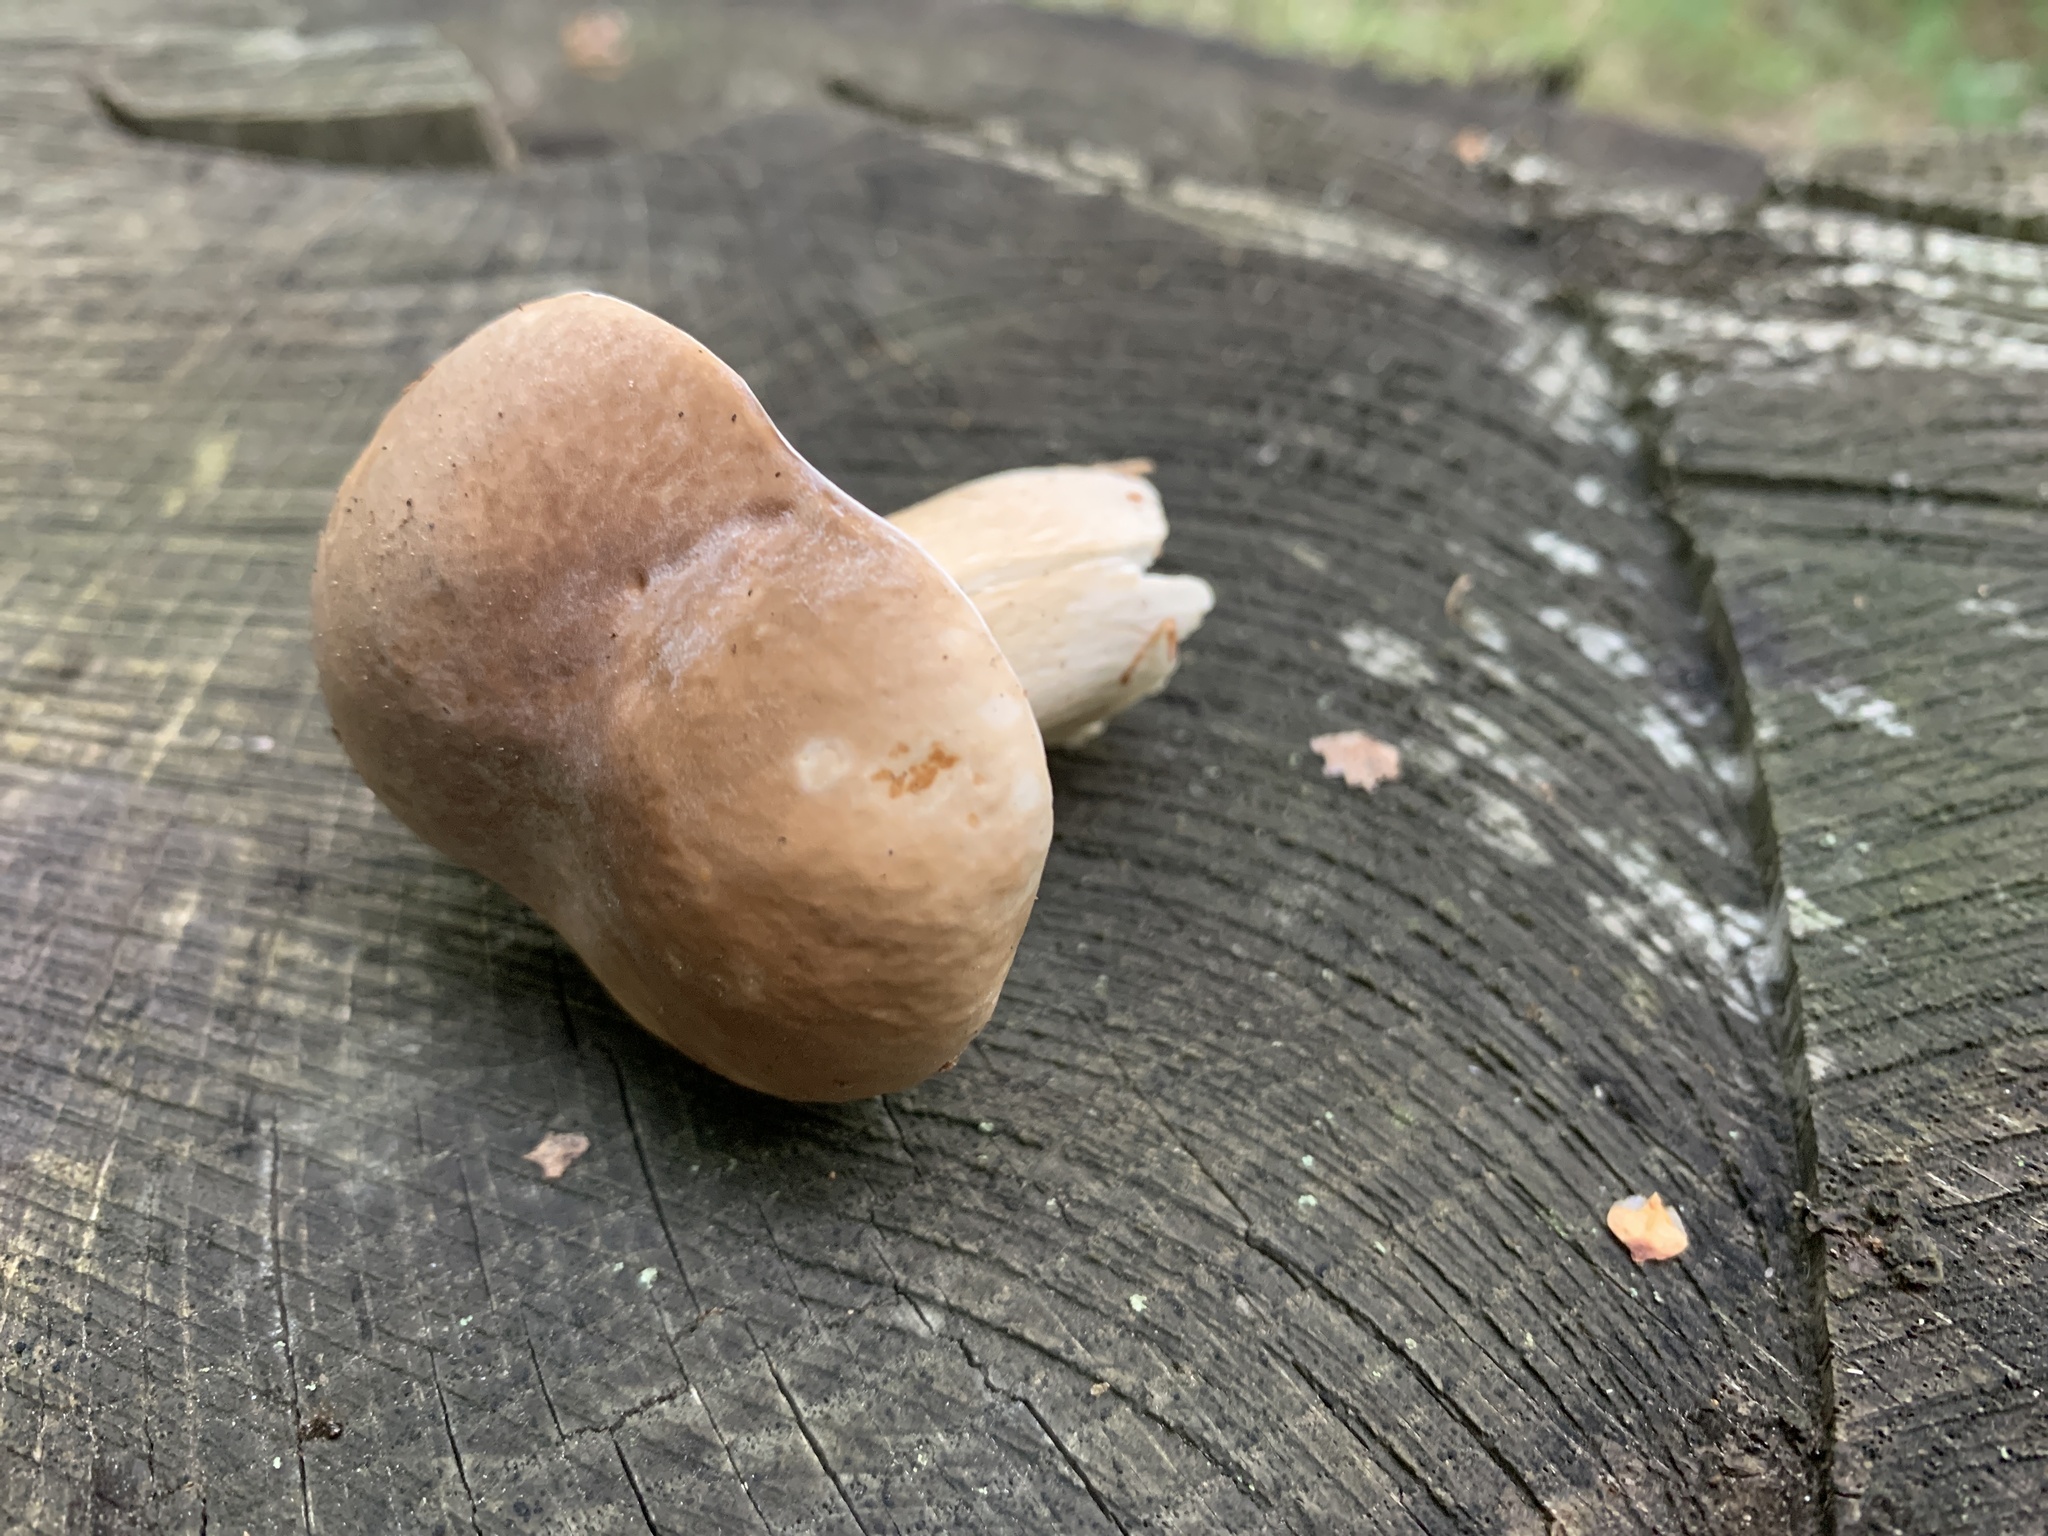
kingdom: Fungi
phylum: Basidiomycota
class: Agaricomycetes
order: Boletales
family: Boletaceae
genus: Boletus
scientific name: Boletus reticulatus
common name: Summer bolete
